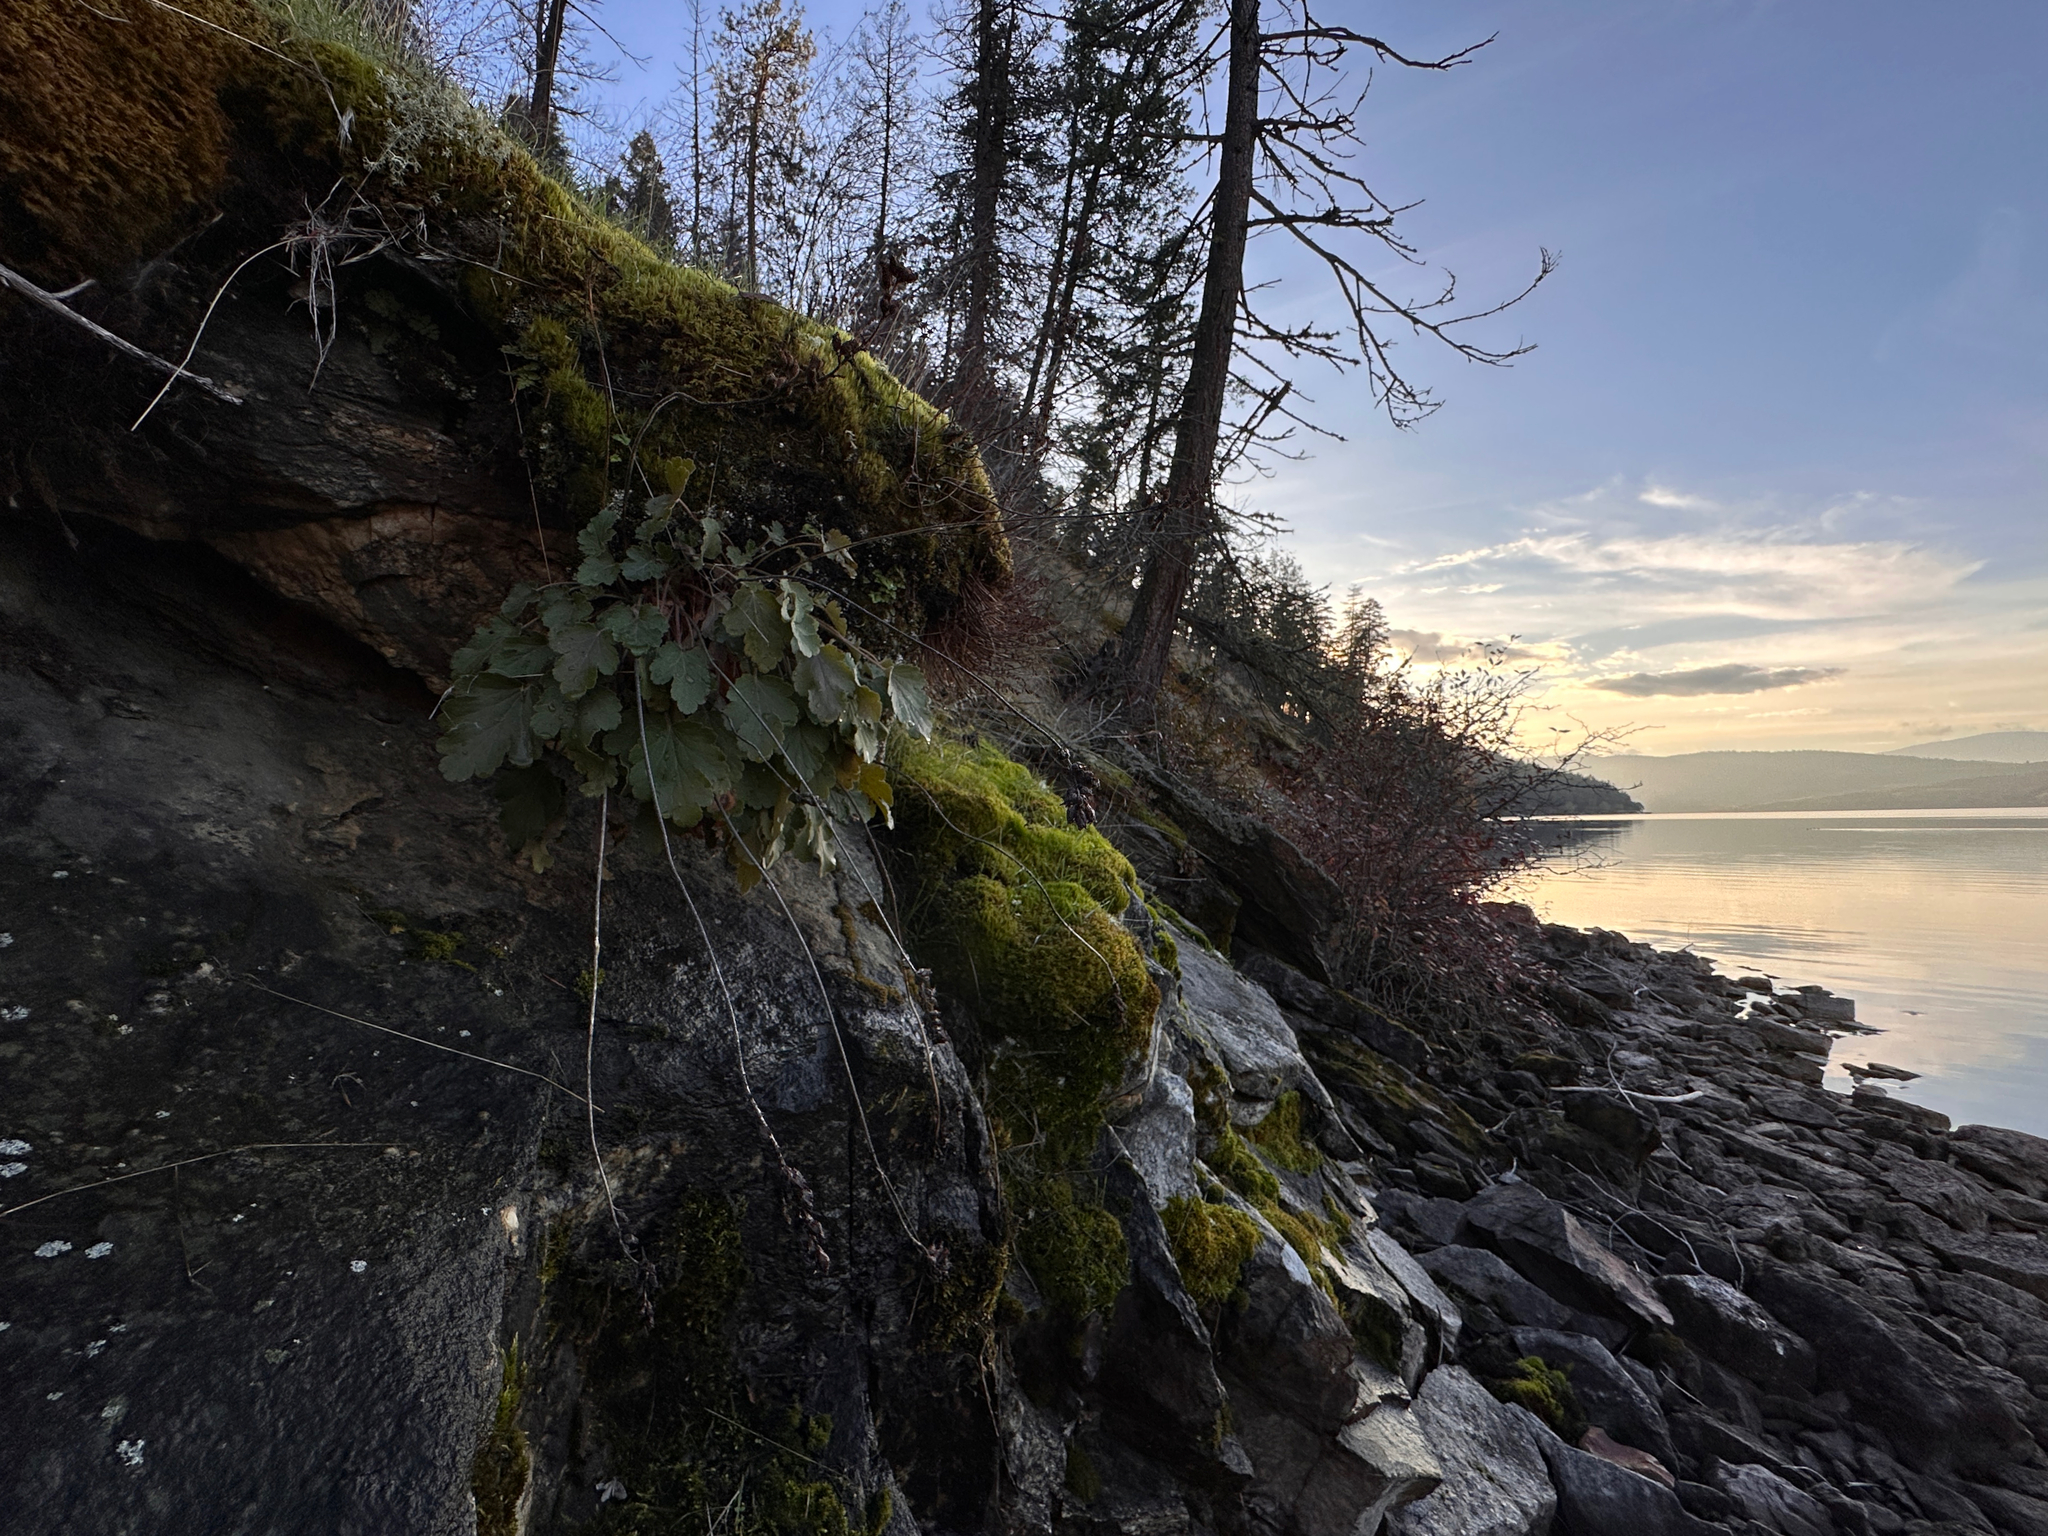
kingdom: Plantae
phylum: Tracheophyta
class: Magnoliopsida
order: Saxifragales
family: Saxifragaceae
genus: Heuchera
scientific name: Heuchera cylindrica
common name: Mat alumroot
